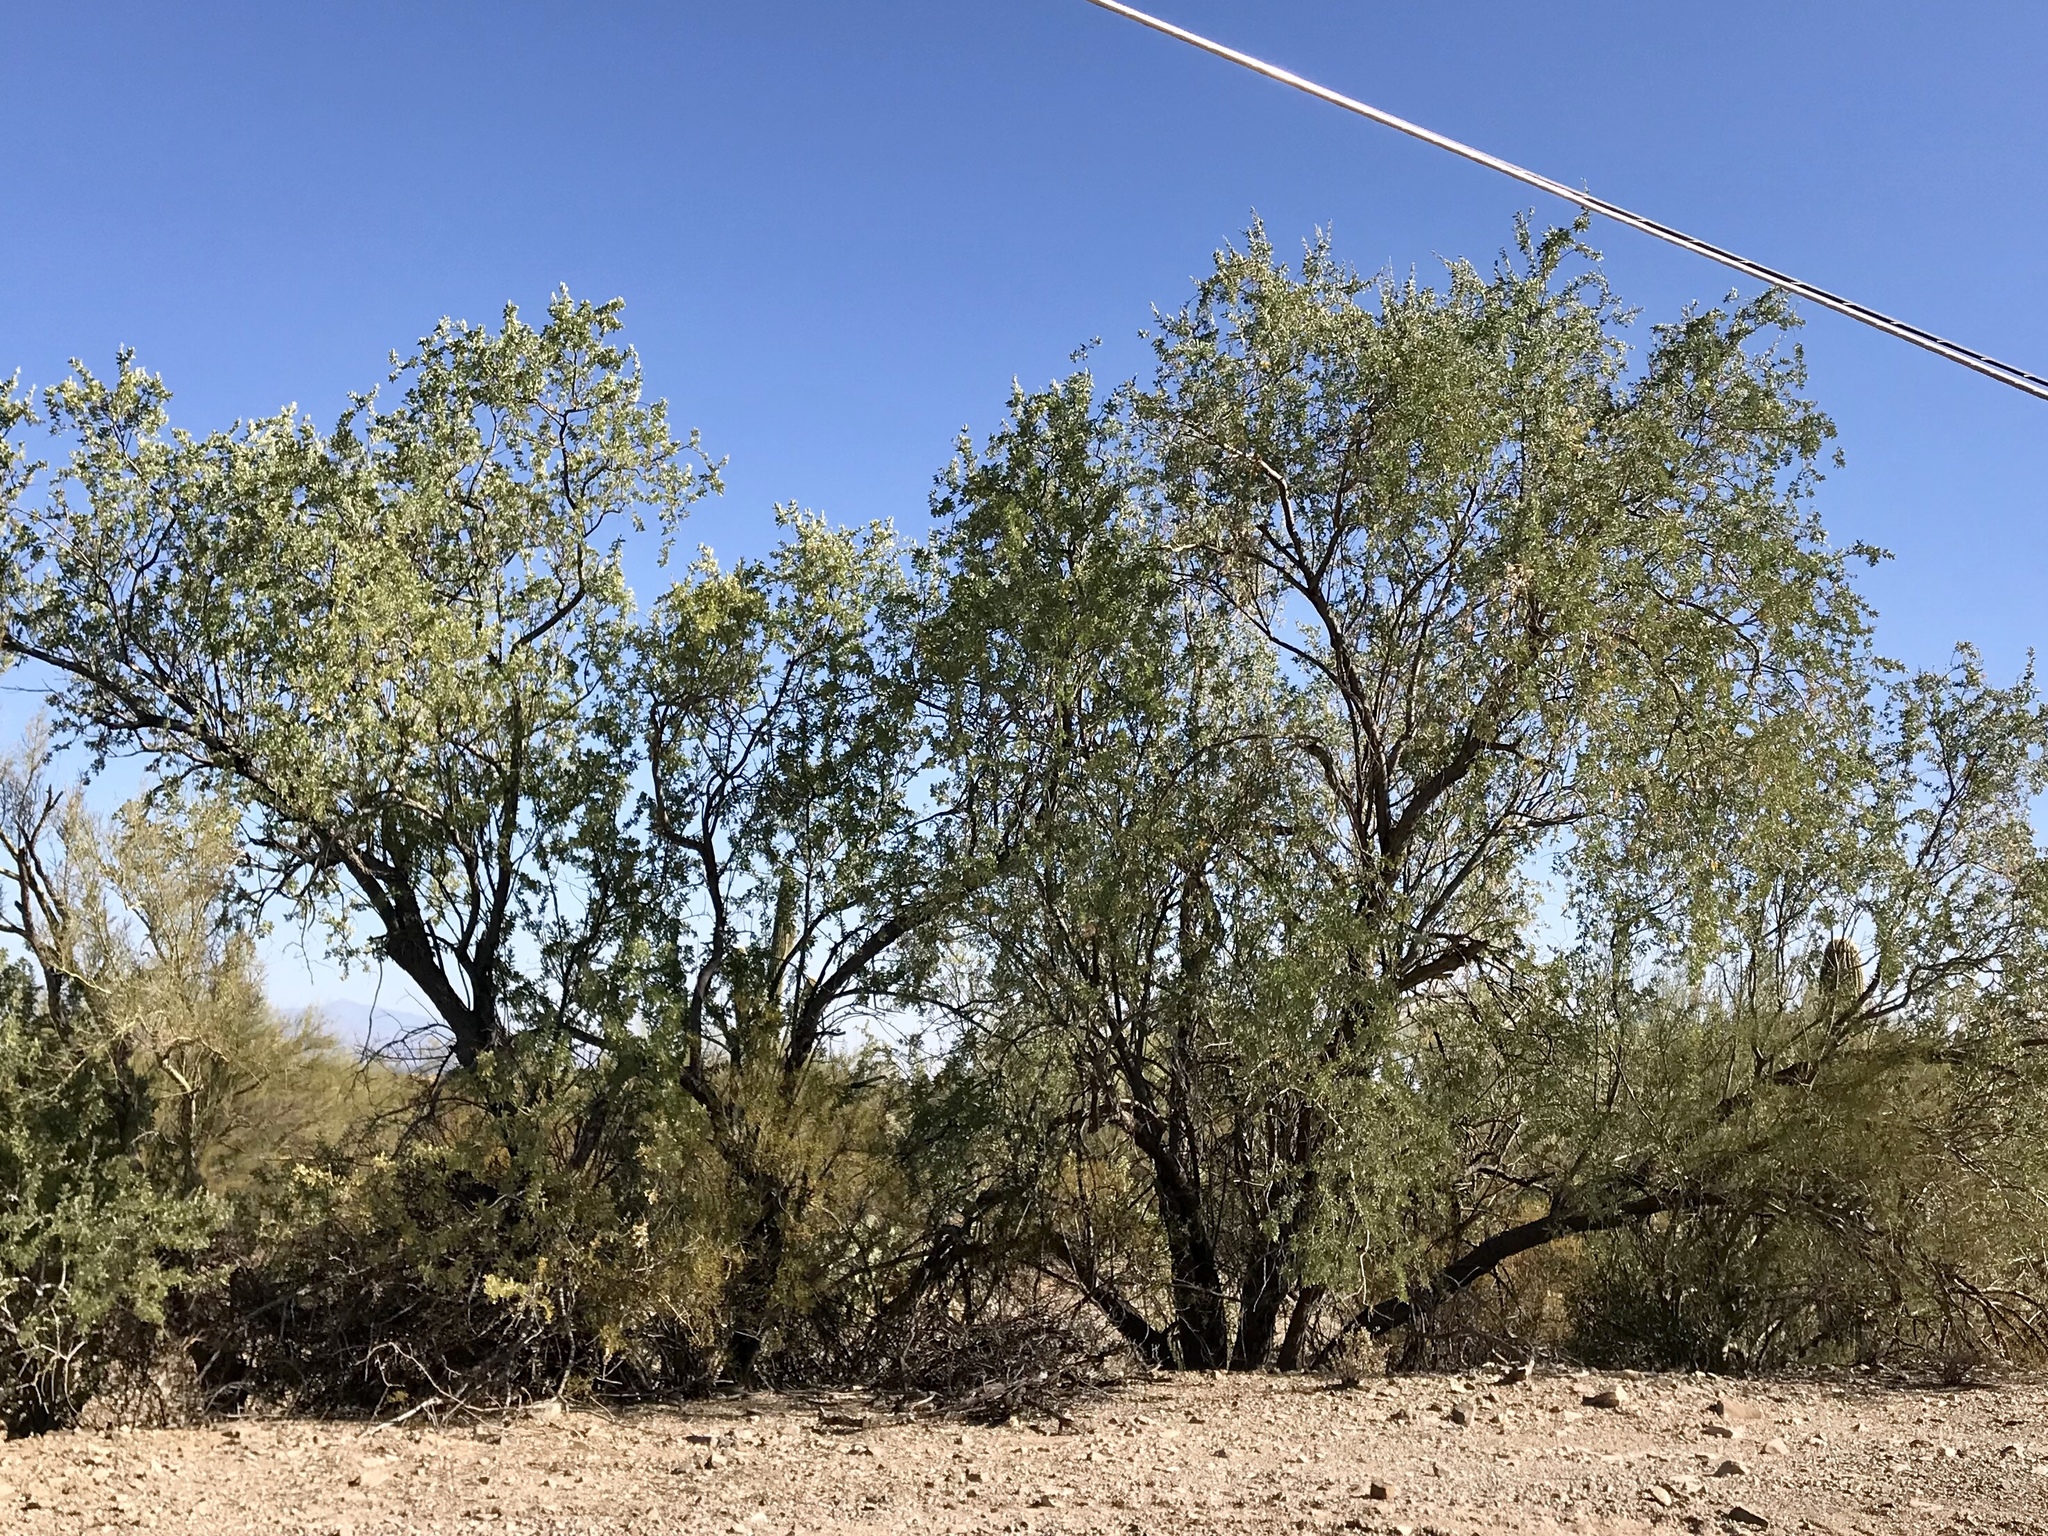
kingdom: Plantae
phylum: Tracheophyta
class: Magnoliopsida
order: Fabales
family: Fabaceae
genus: Olneya
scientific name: Olneya tesota
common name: Desert ironwood
